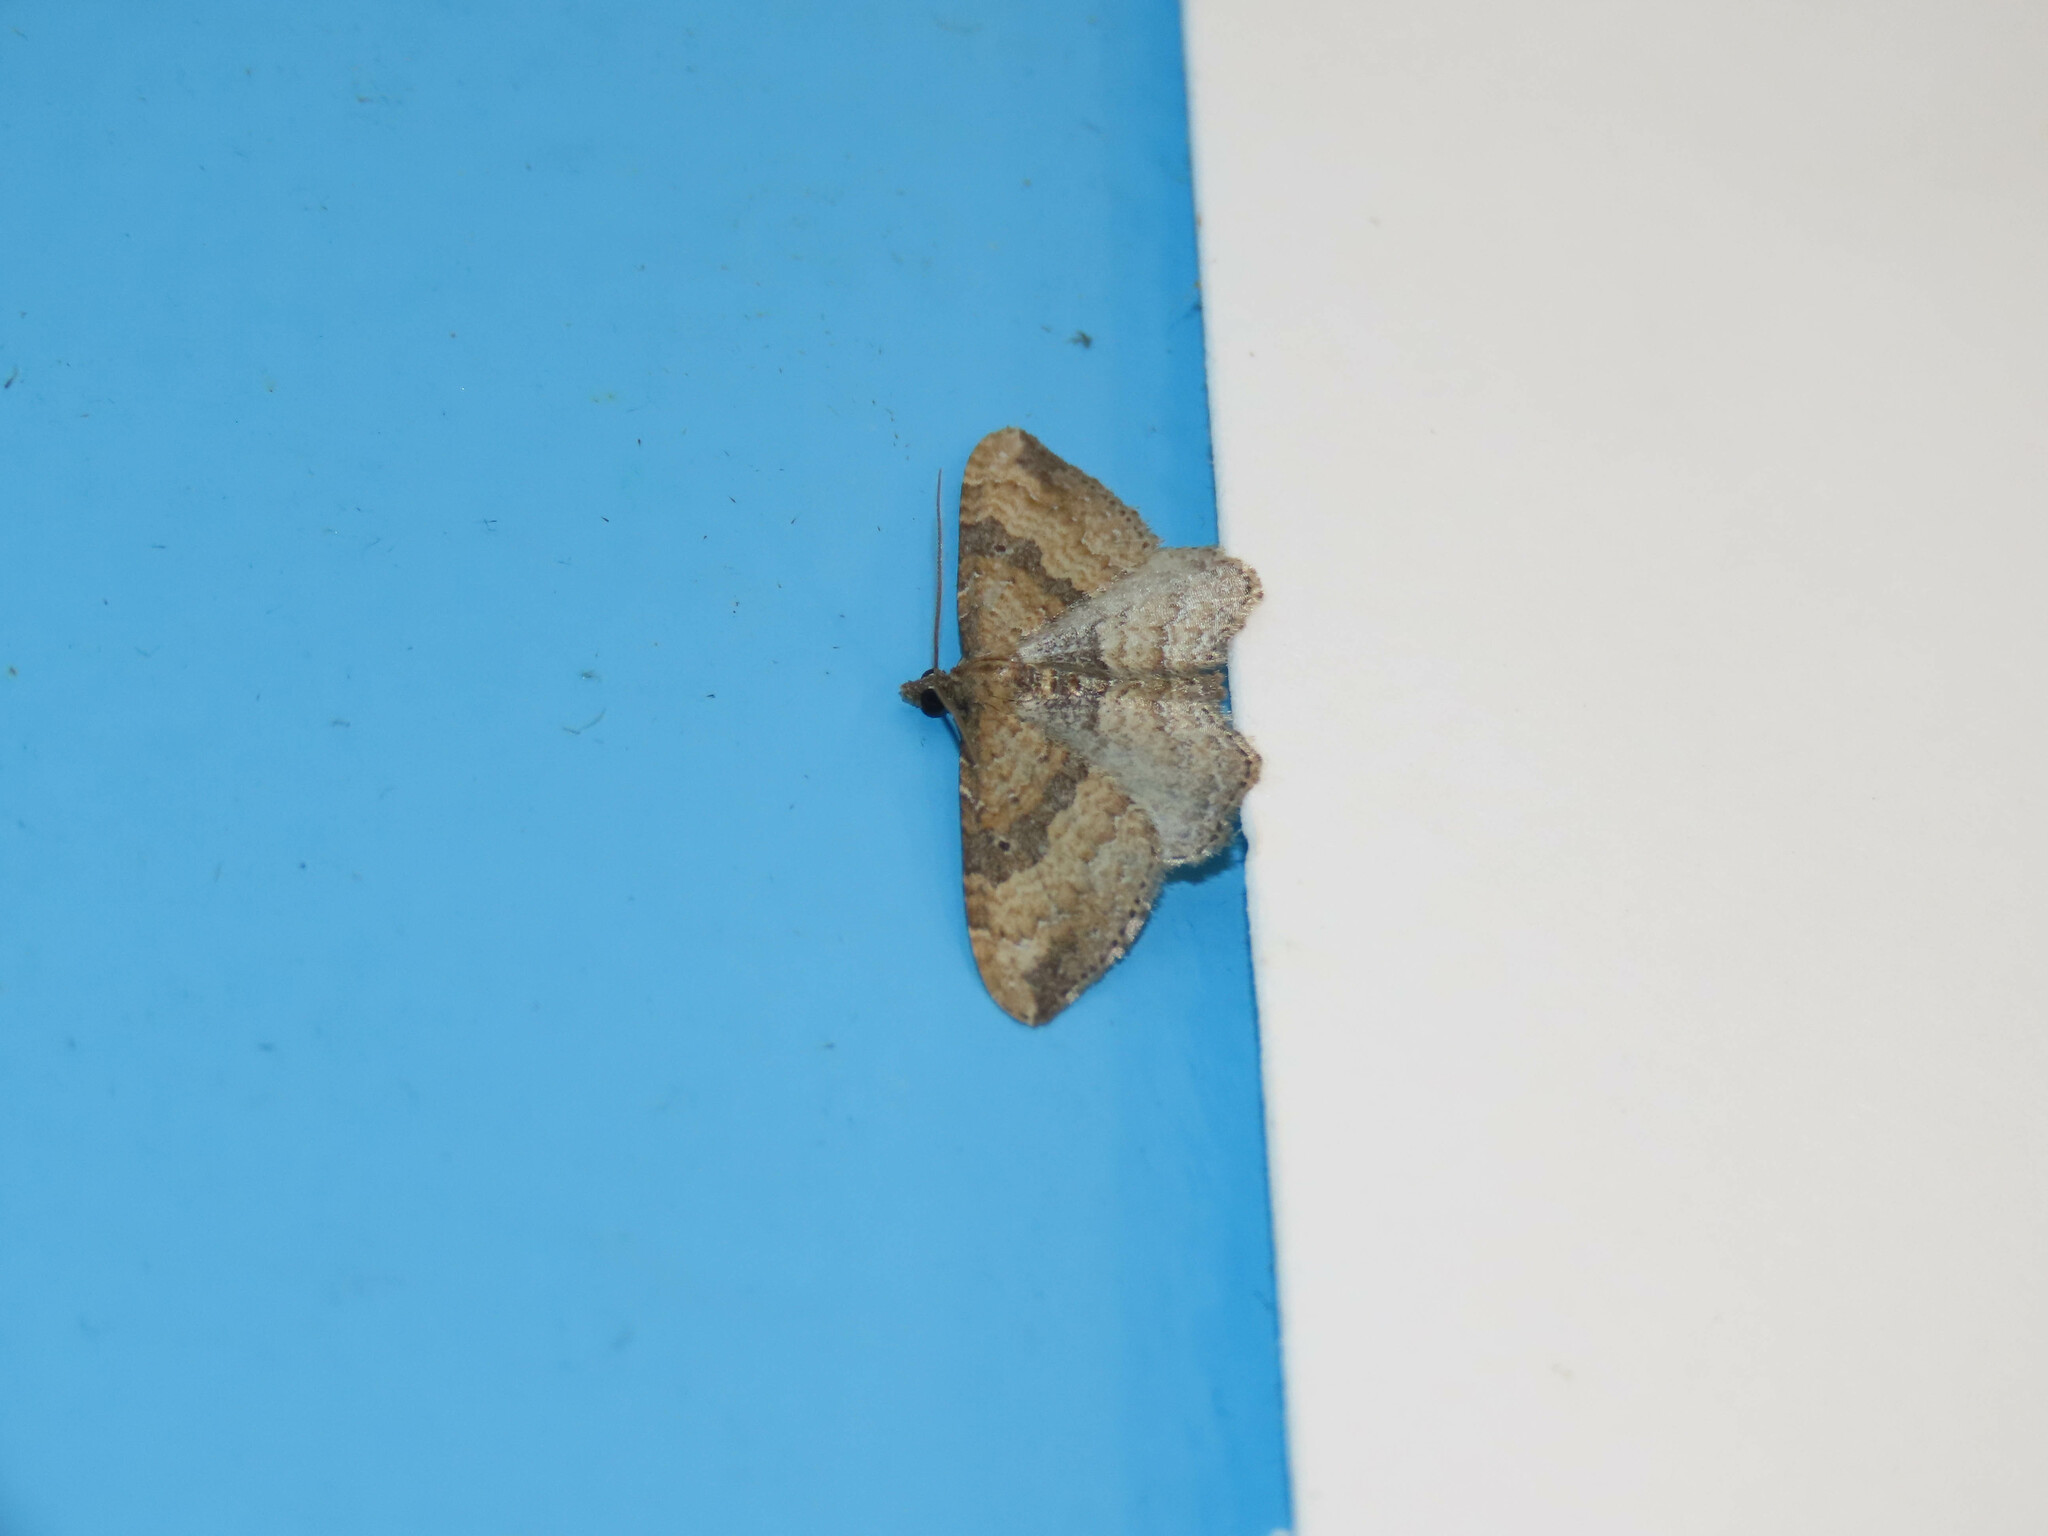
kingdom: Animalia
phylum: Arthropoda
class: Insecta
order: Lepidoptera
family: Geometridae
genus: Orthonama
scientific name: Orthonama obstipata
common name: The gem
